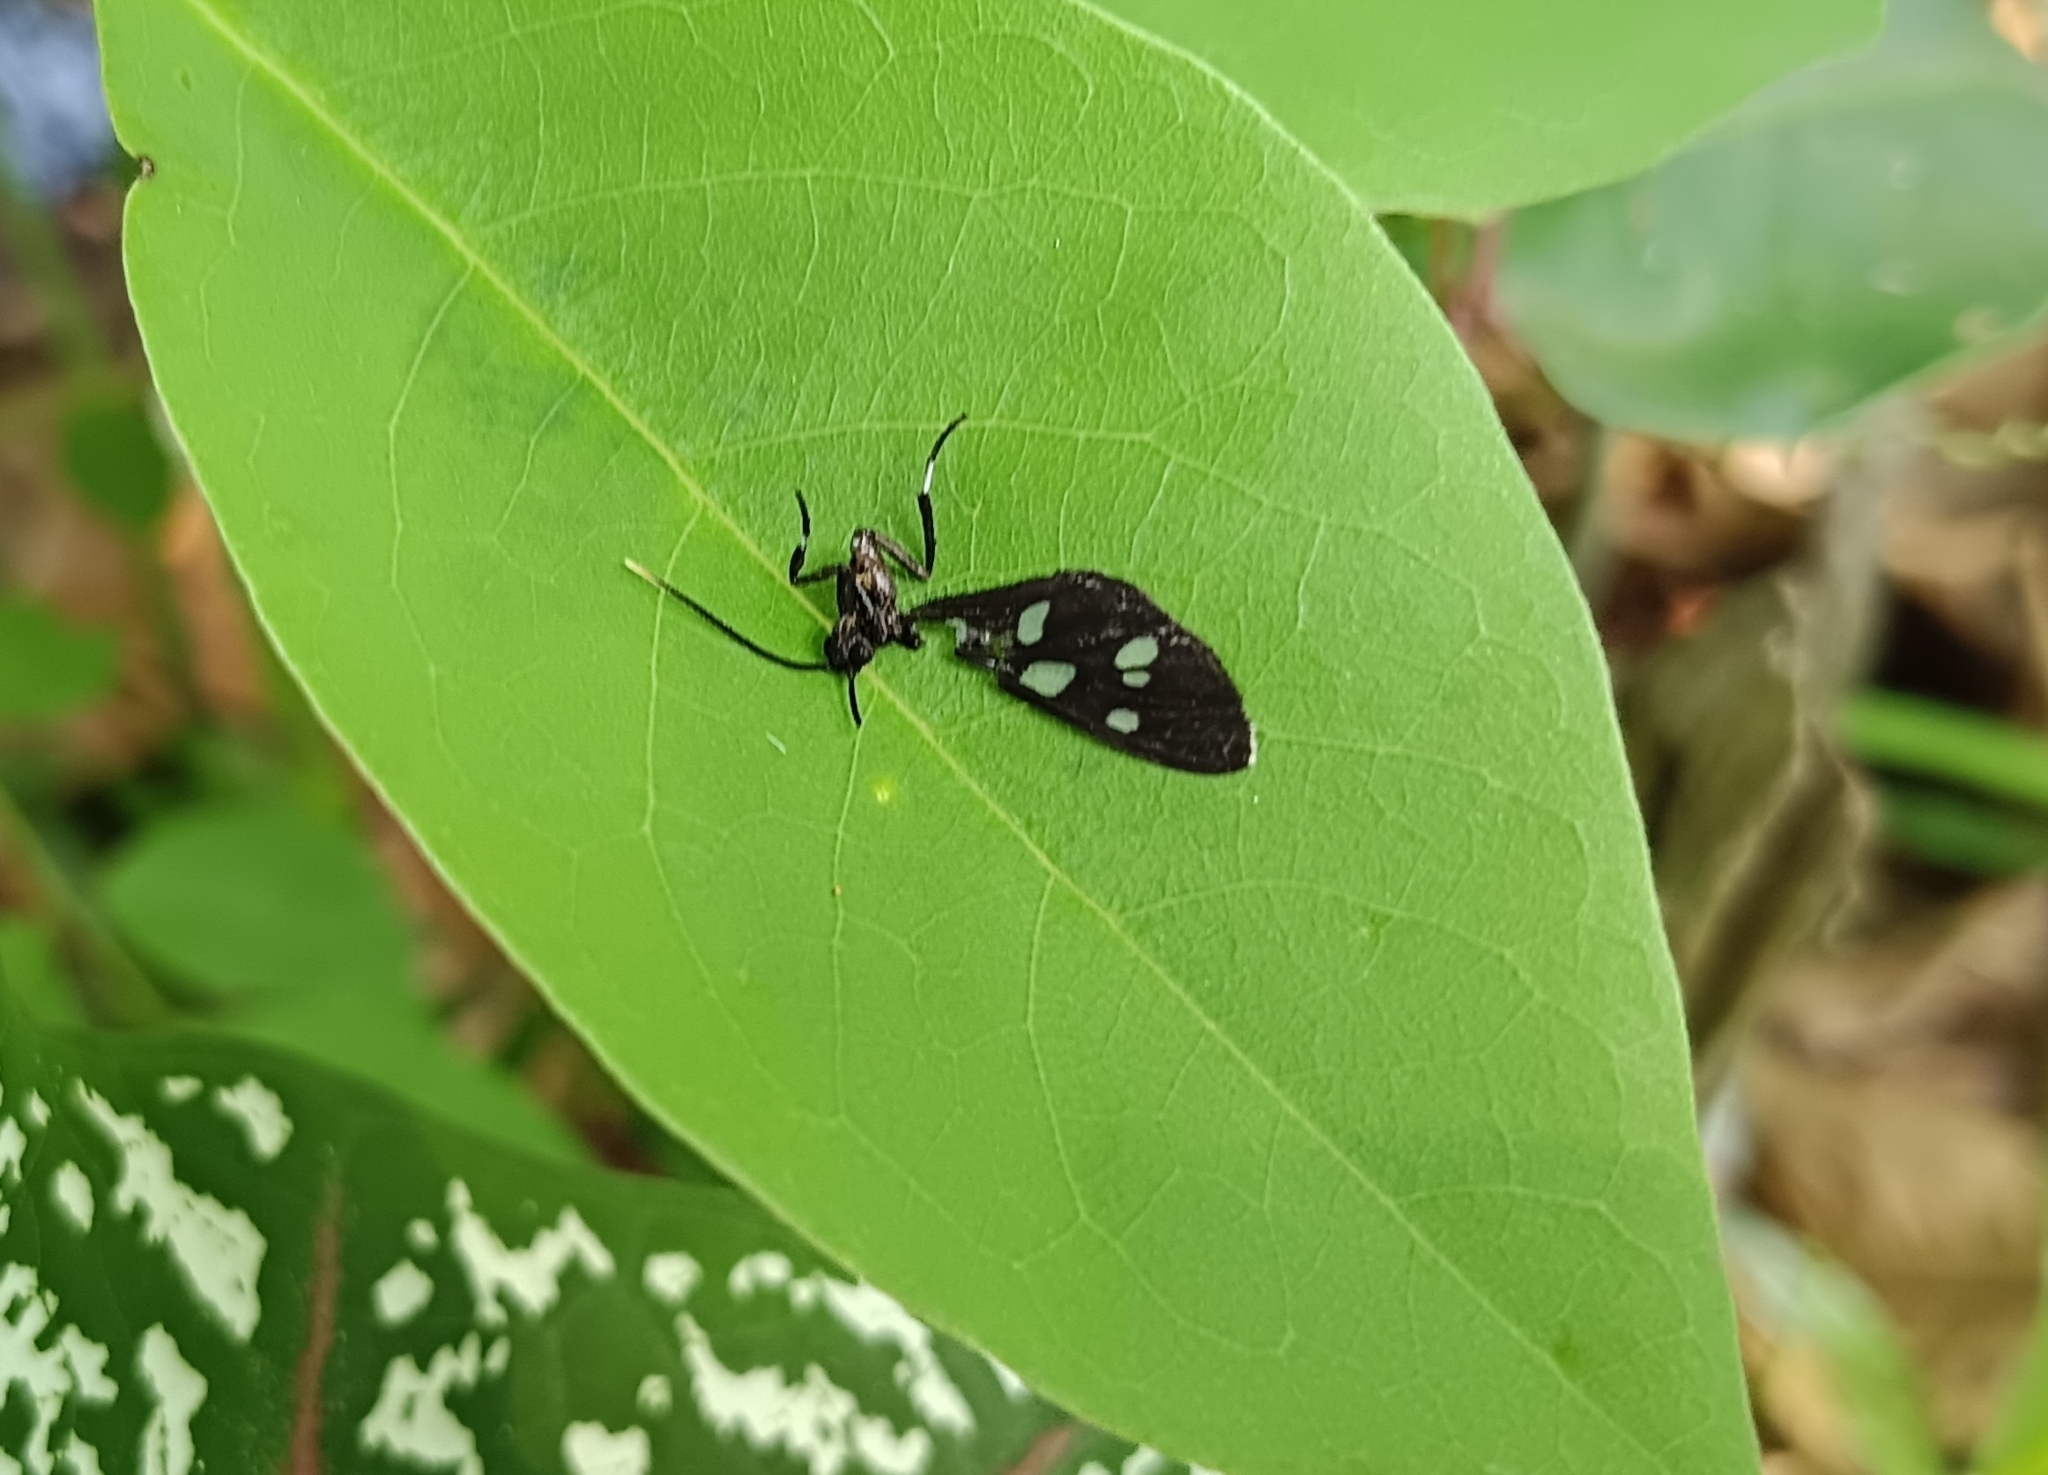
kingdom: Animalia
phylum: Arthropoda
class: Insecta
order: Lepidoptera
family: Erebidae
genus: Amata
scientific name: Amata passalis
